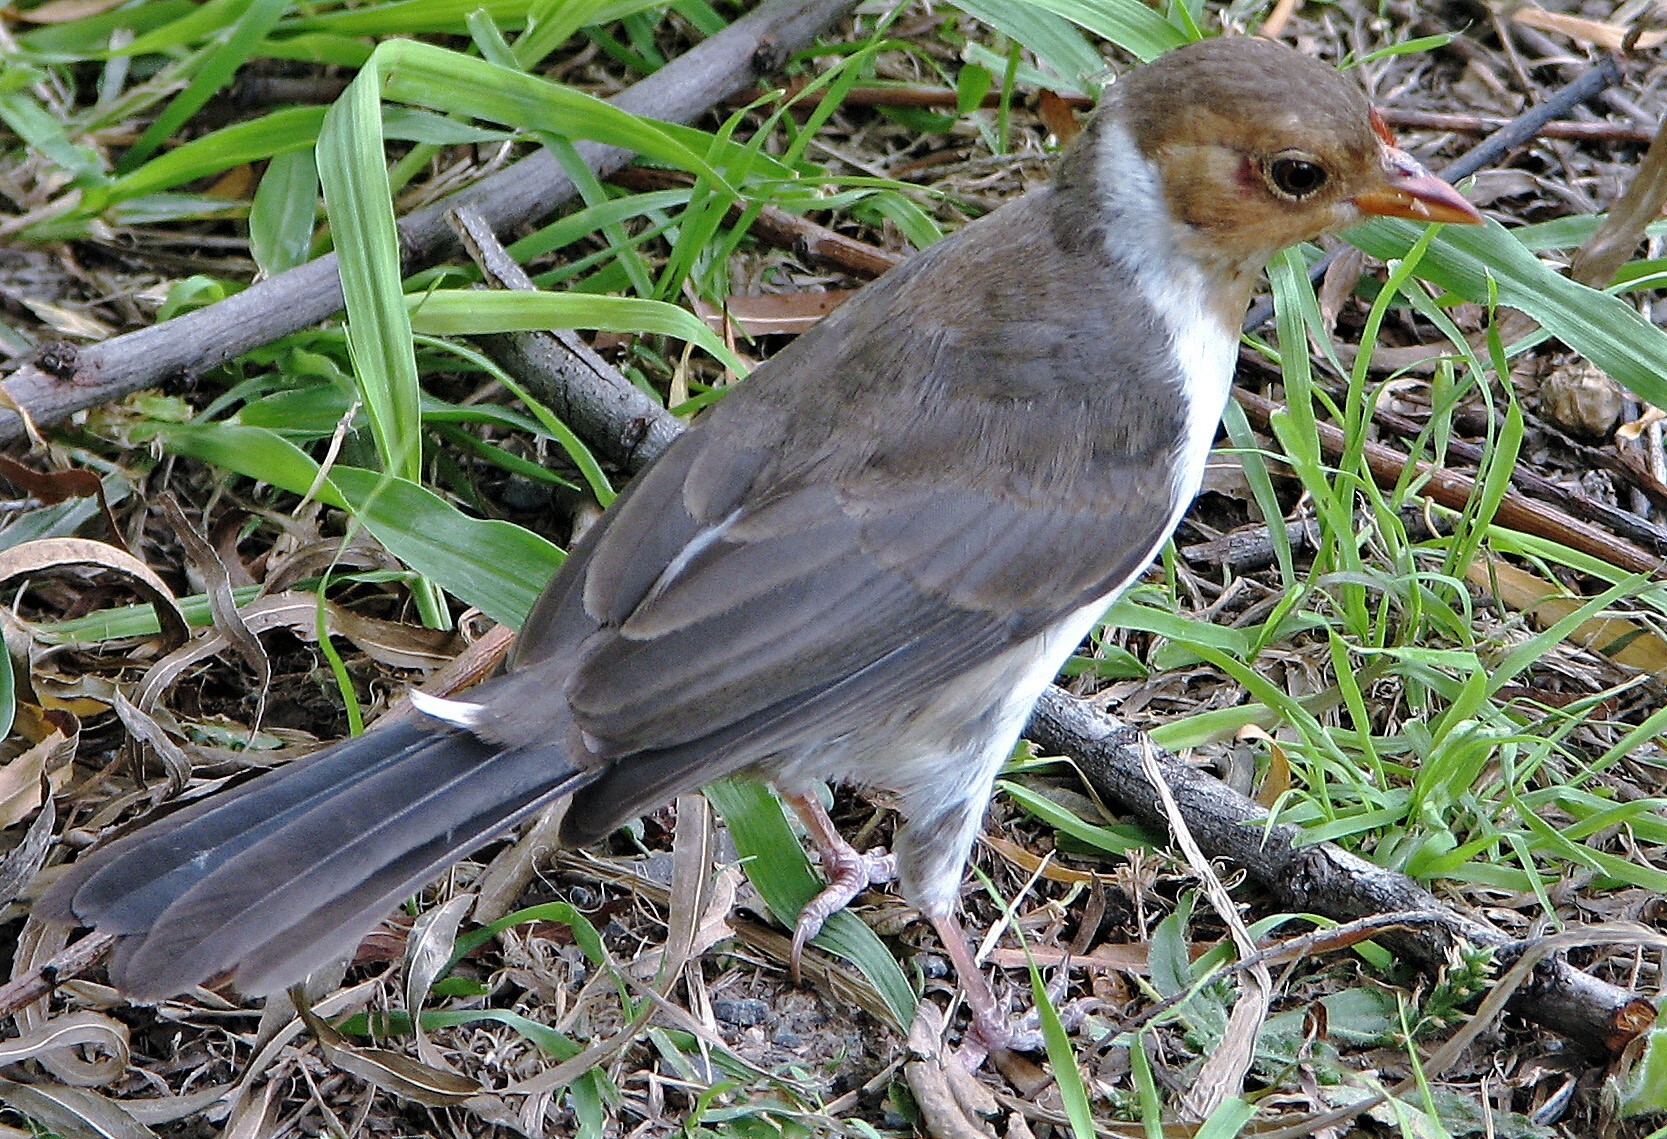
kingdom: Animalia
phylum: Chordata
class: Aves
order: Passeriformes
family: Thraupidae
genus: Paroaria
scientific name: Paroaria capitata
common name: Yellow-billed cardinal
